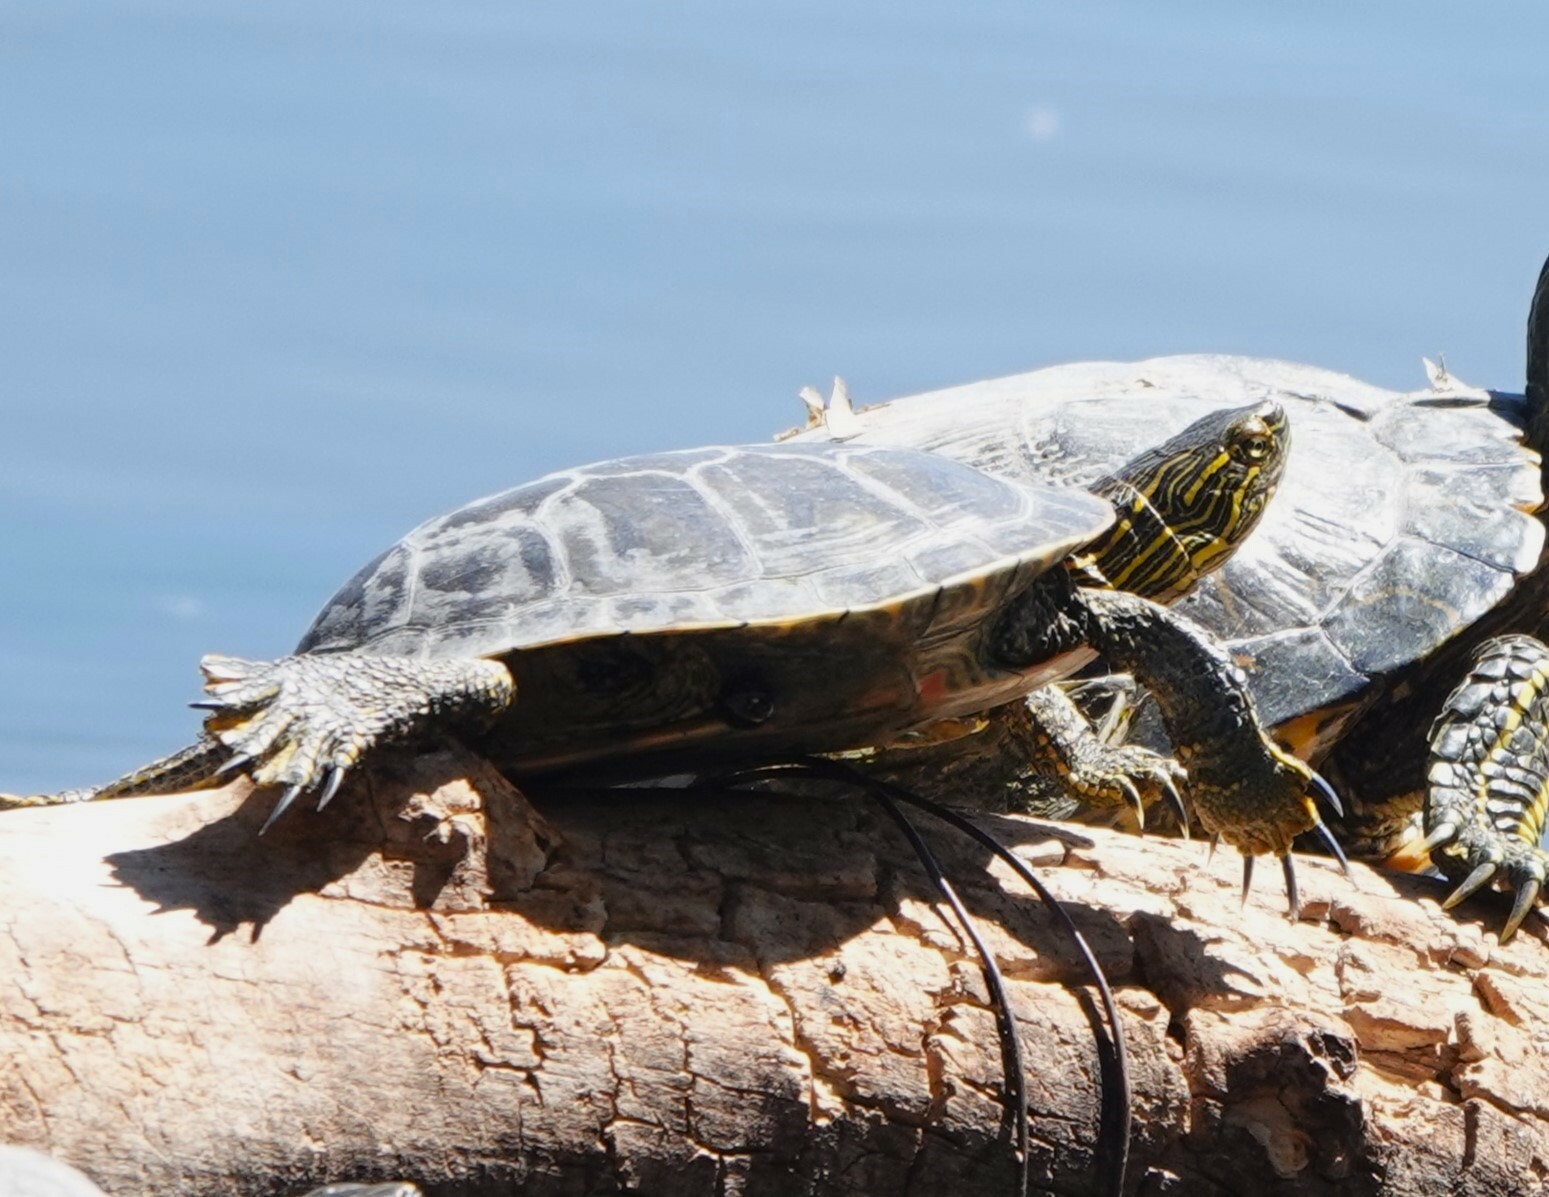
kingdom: Animalia
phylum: Chordata
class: Testudines
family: Emydidae
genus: Chrysemys
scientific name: Chrysemys picta
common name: Painted turtle
